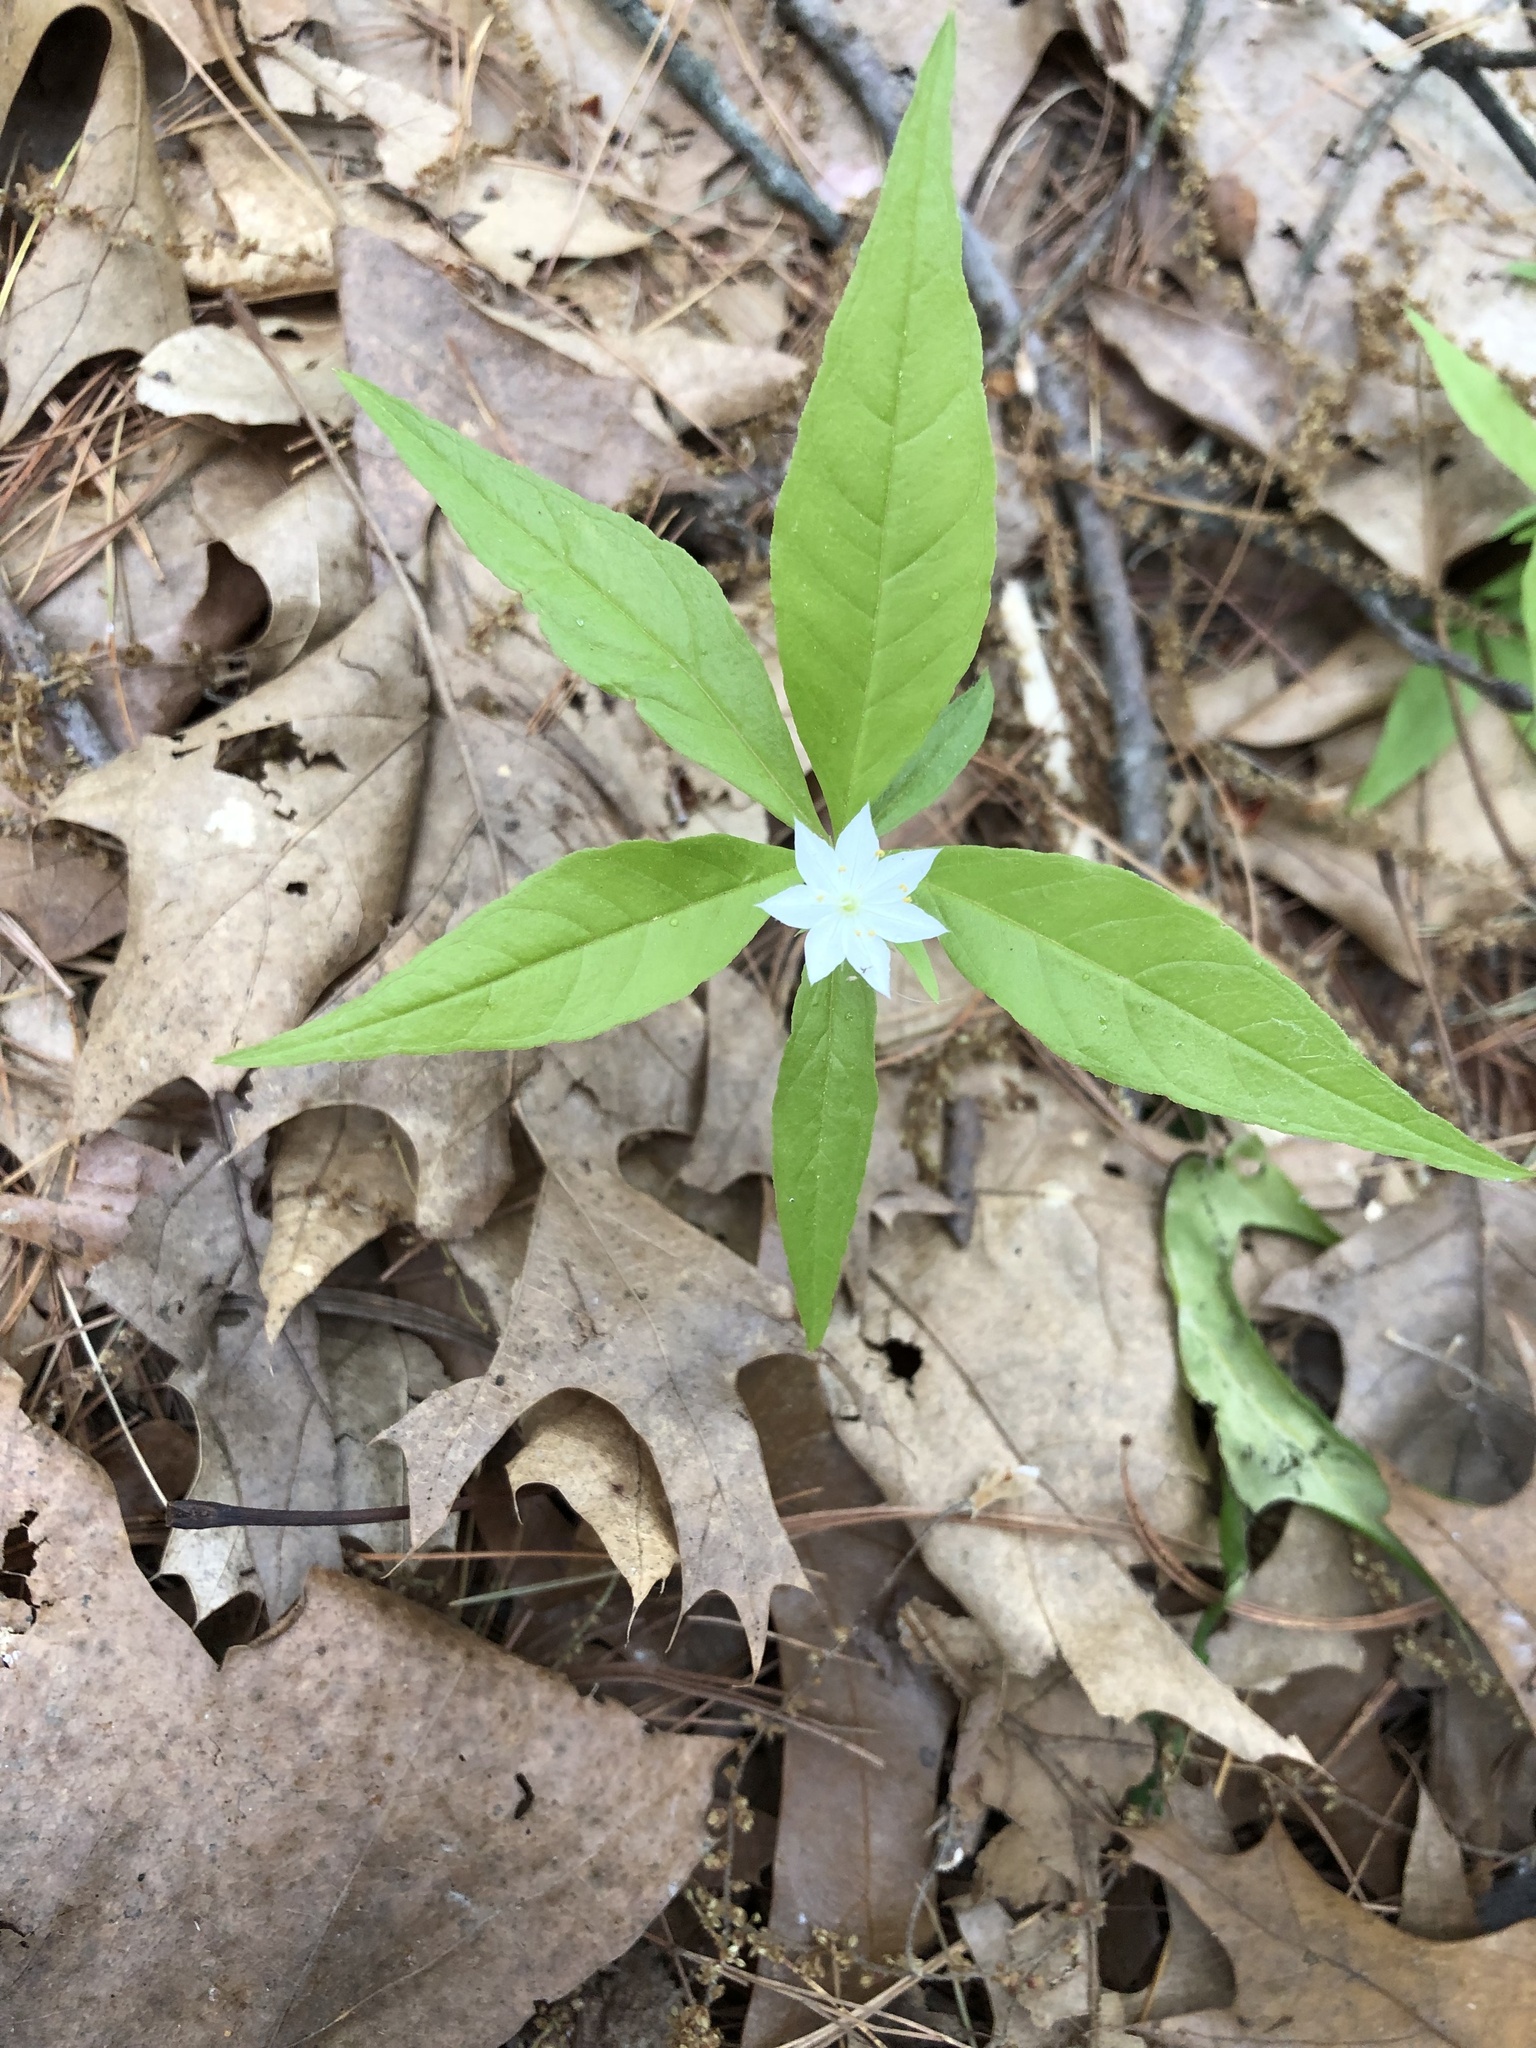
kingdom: Plantae
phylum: Tracheophyta
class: Magnoliopsida
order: Ericales
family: Primulaceae
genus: Lysimachia
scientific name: Lysimachia borealis
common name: American starflower
